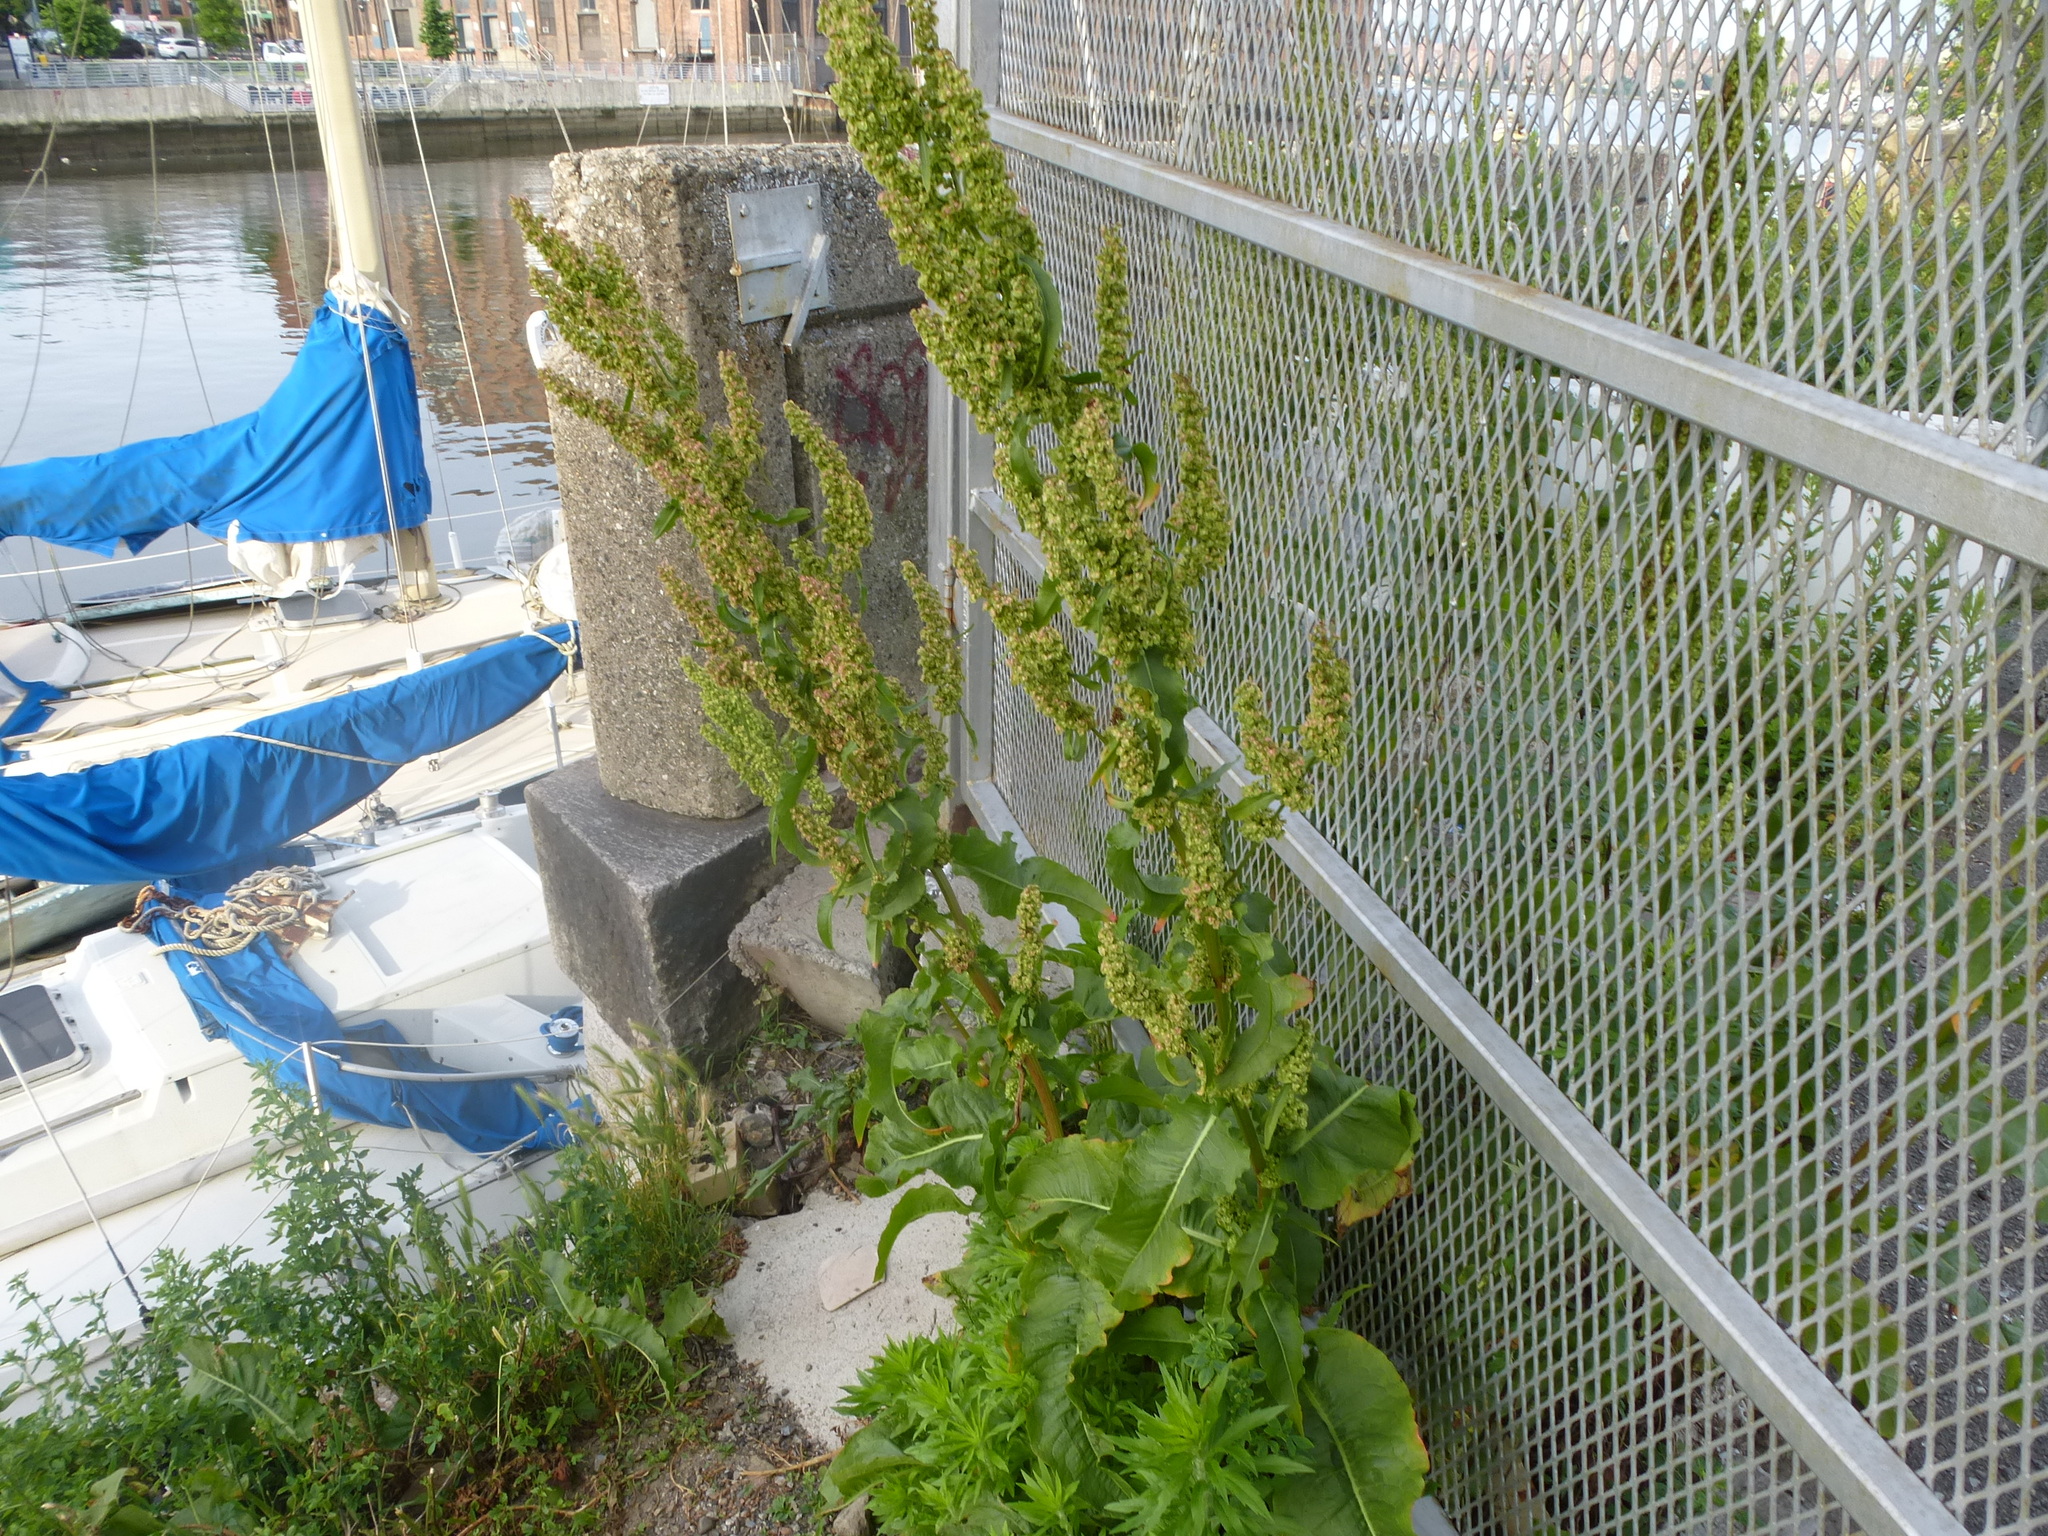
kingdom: Plantae
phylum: Tracheophyta
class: Magnoliopsida
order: Caryophyllales
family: Polygonaceae
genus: Rumex
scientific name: Rumex crispus
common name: Curled dock
